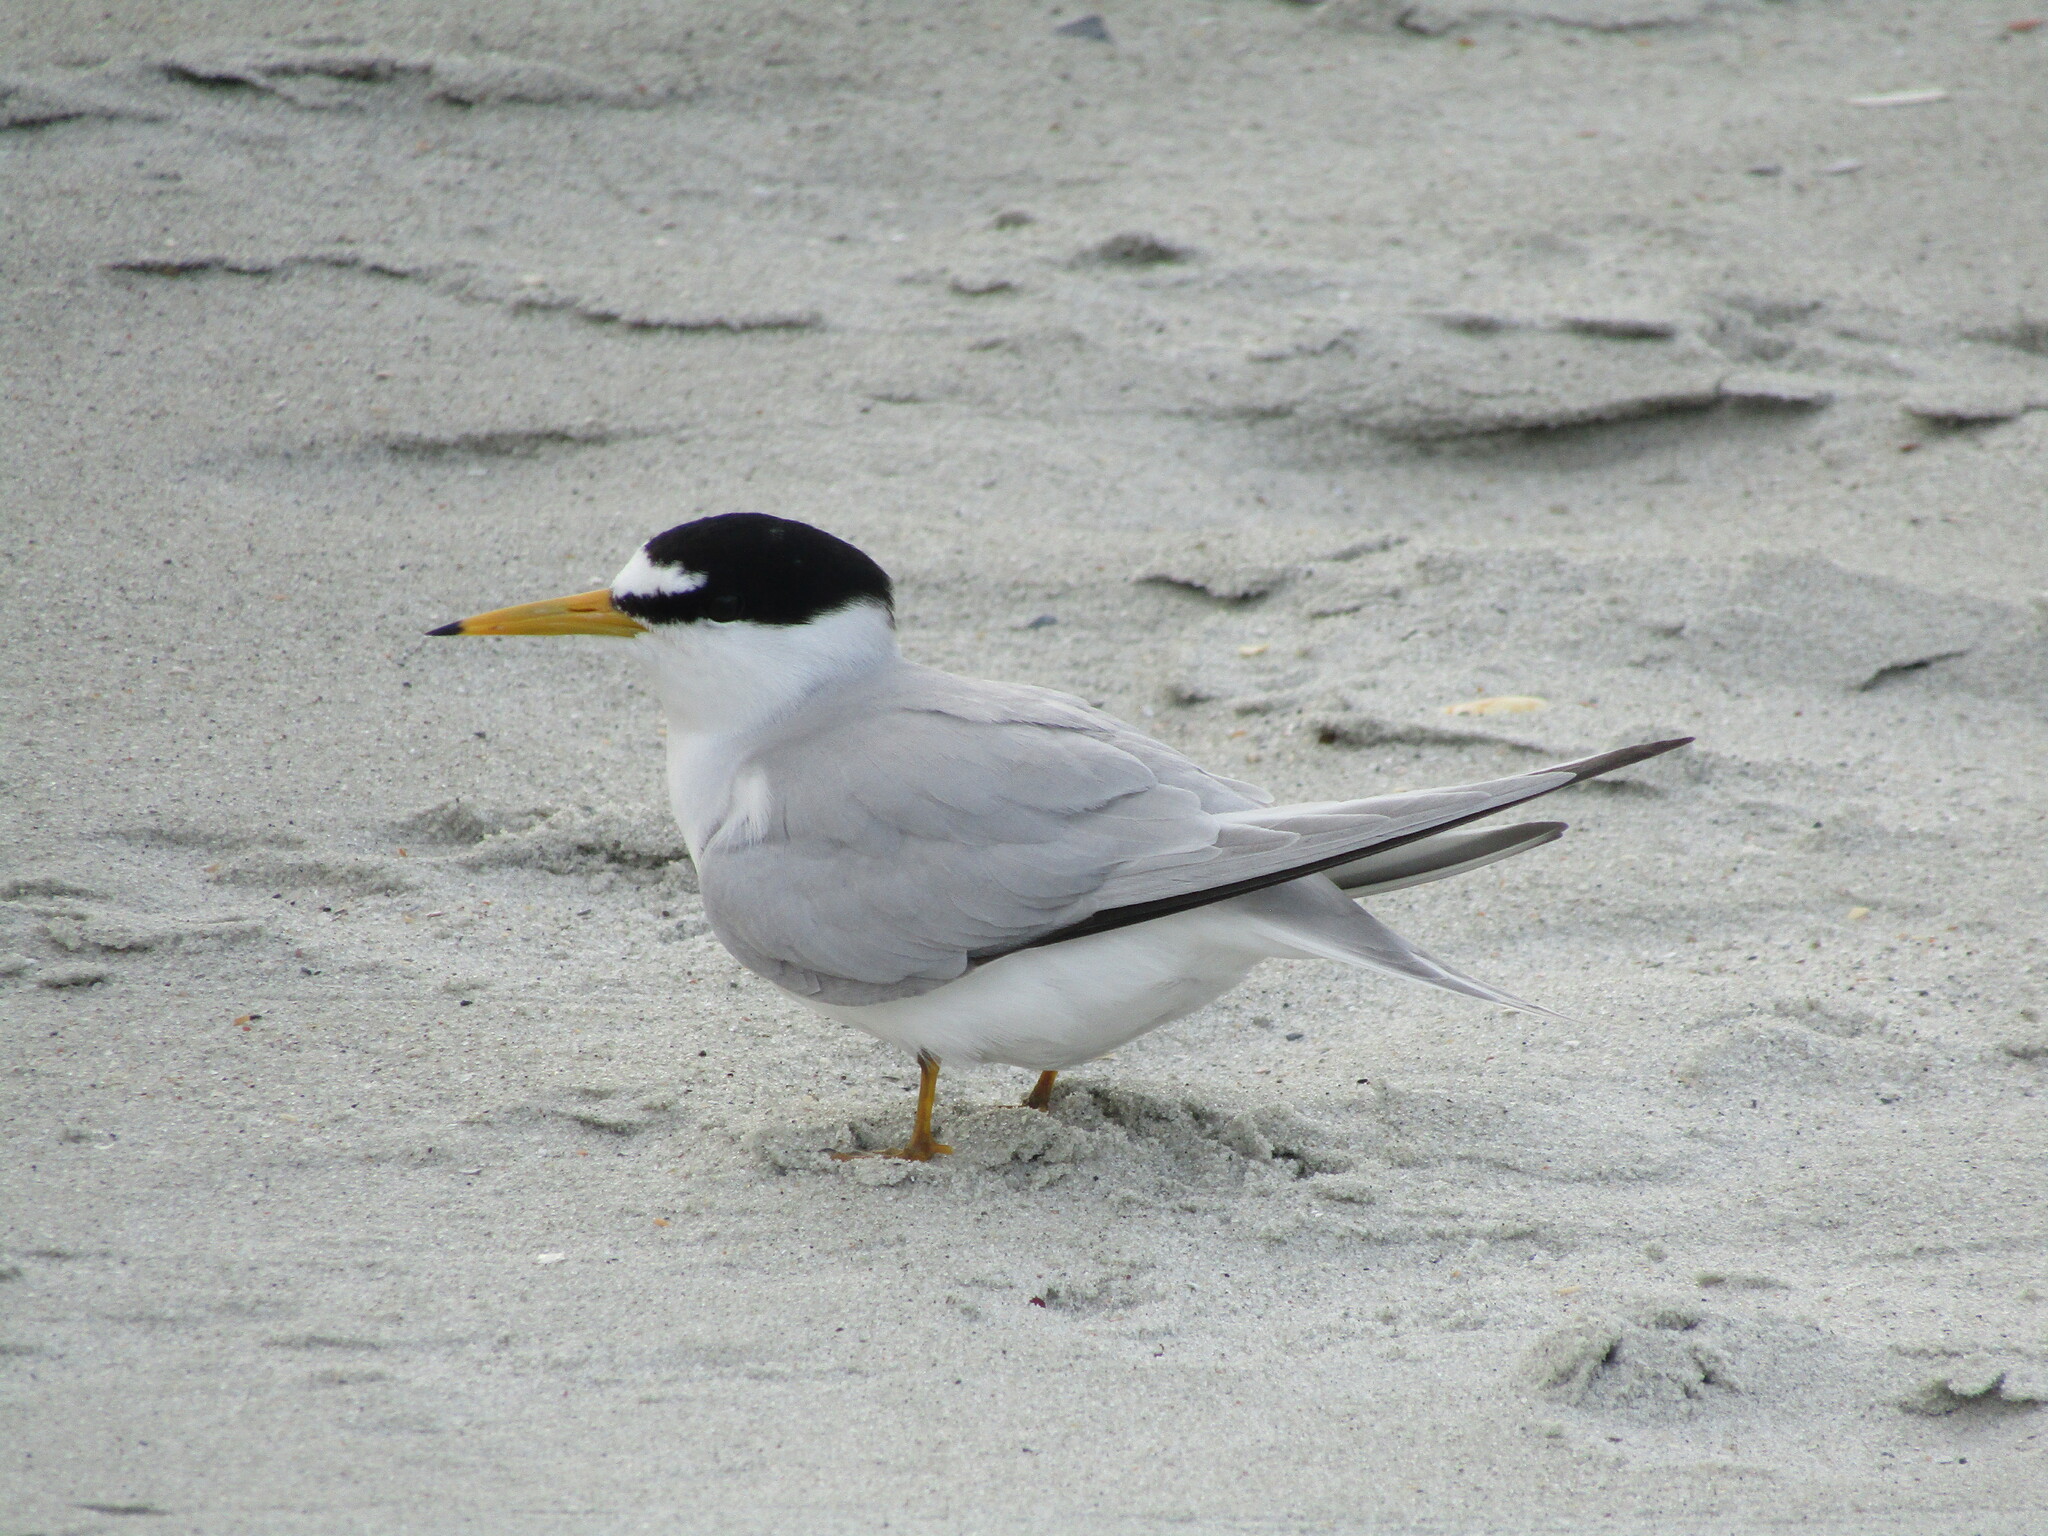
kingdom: Animalia
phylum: Chordata
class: Aves
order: Charadriiformes
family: Laridae
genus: Sternula
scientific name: Sternula antillarum
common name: Least tern
